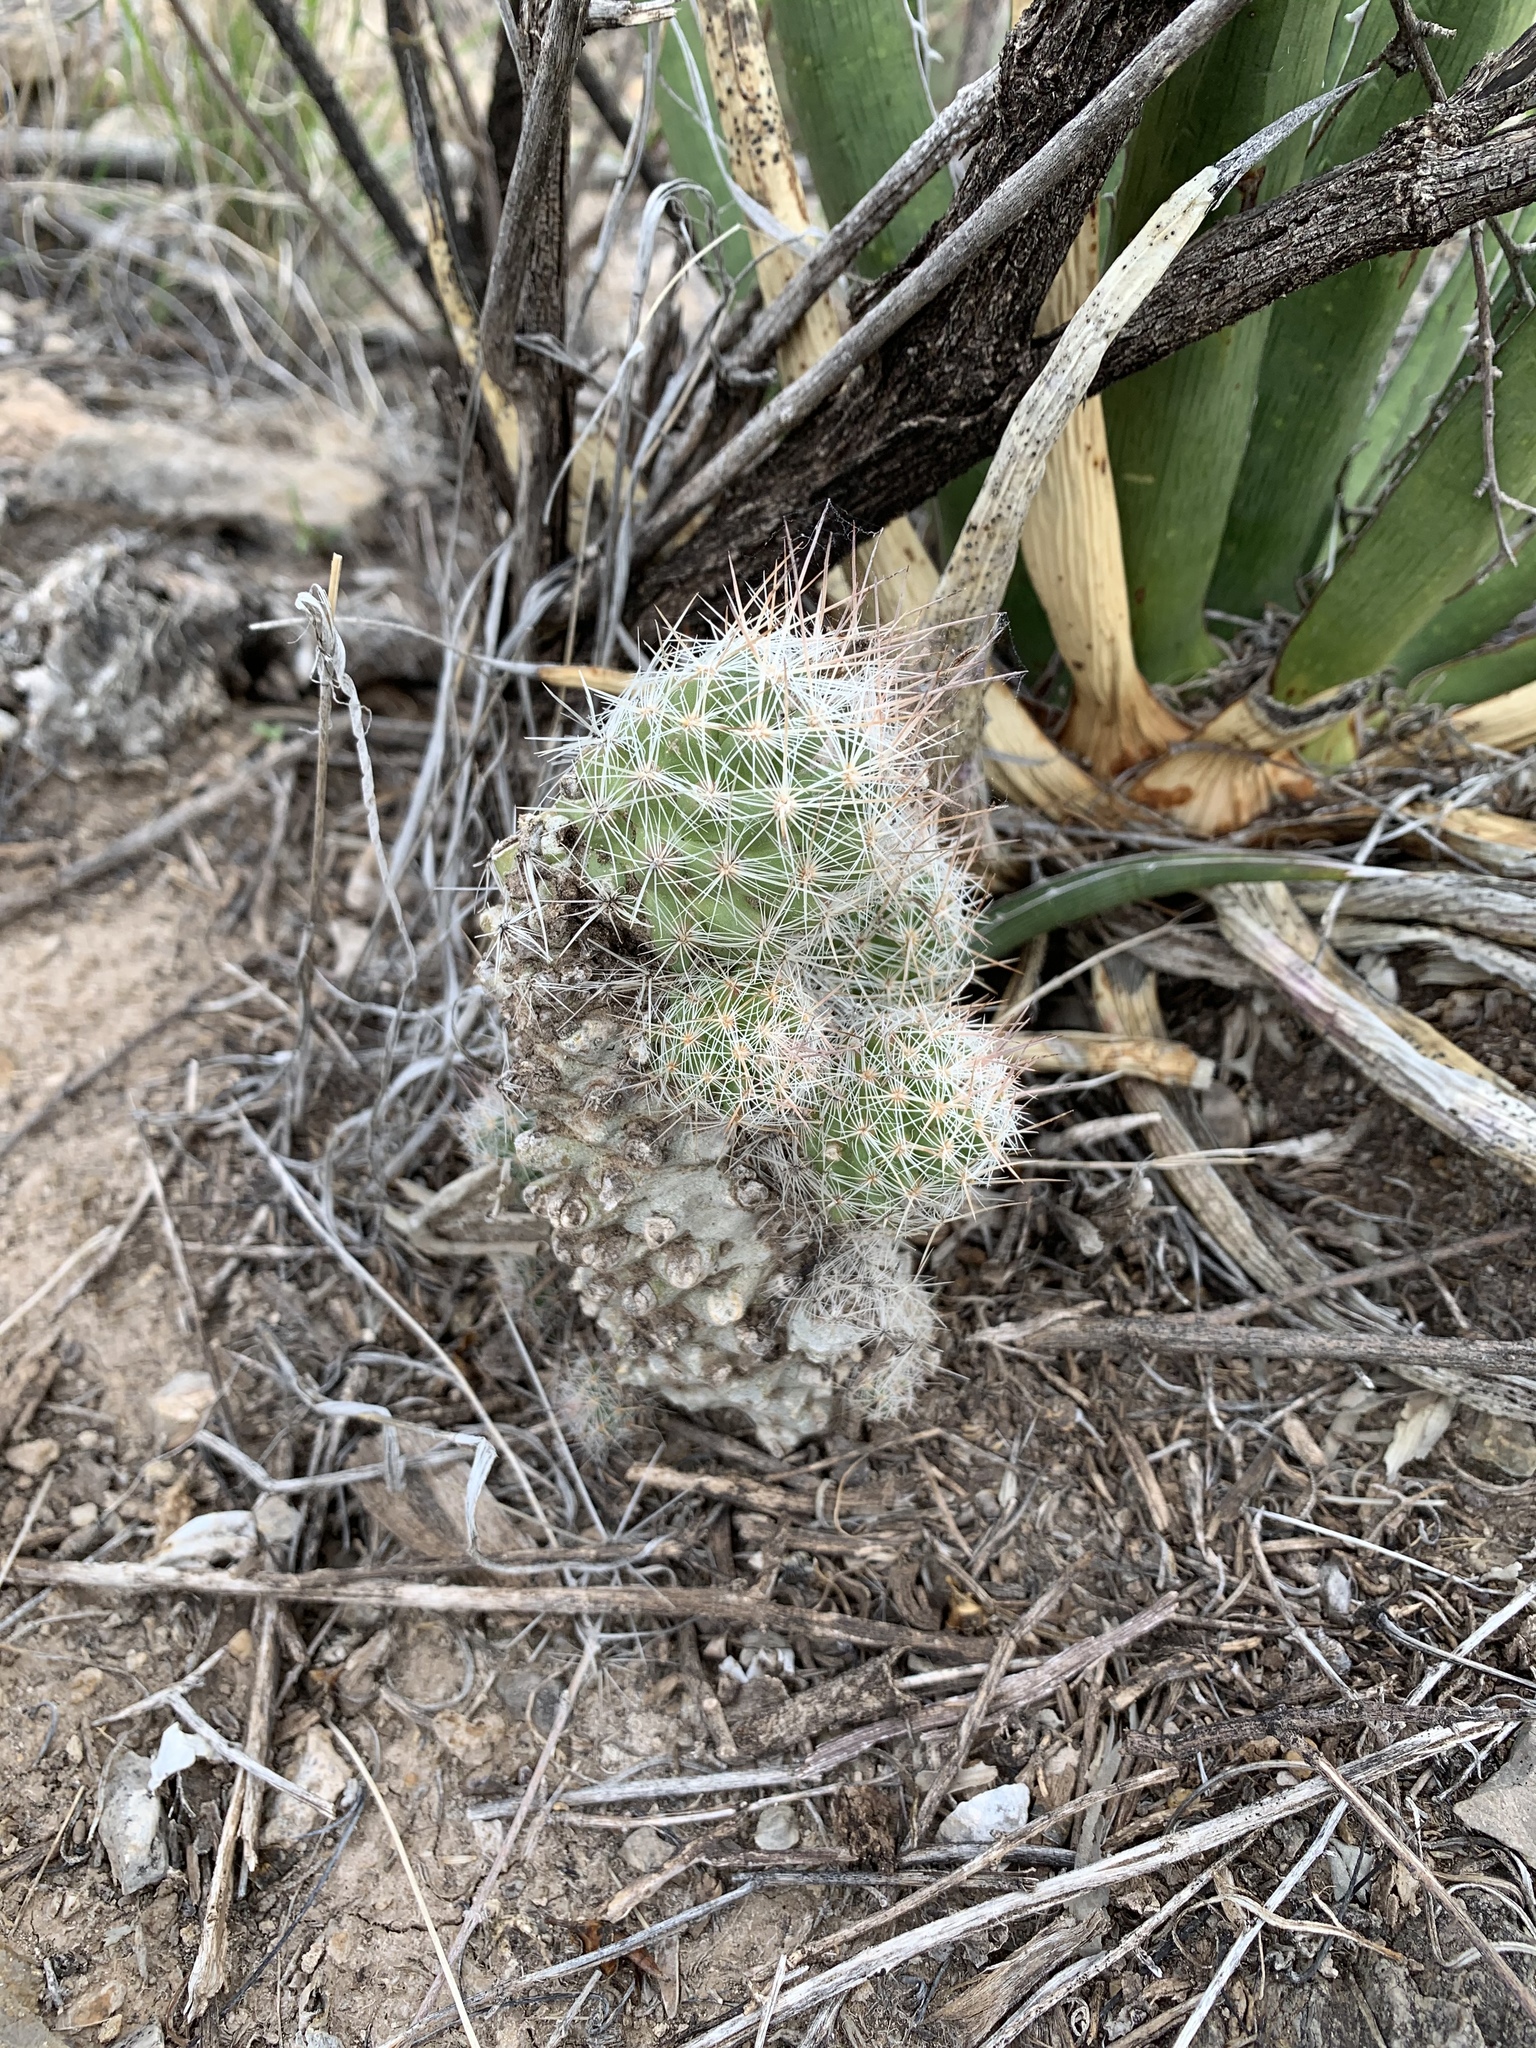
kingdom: Plantae
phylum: Tracheophyta
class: Magnoliopsida
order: Caryophyllales
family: Cactaceae
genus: Pelecyphora
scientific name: Pelecyphora tuberculosa
